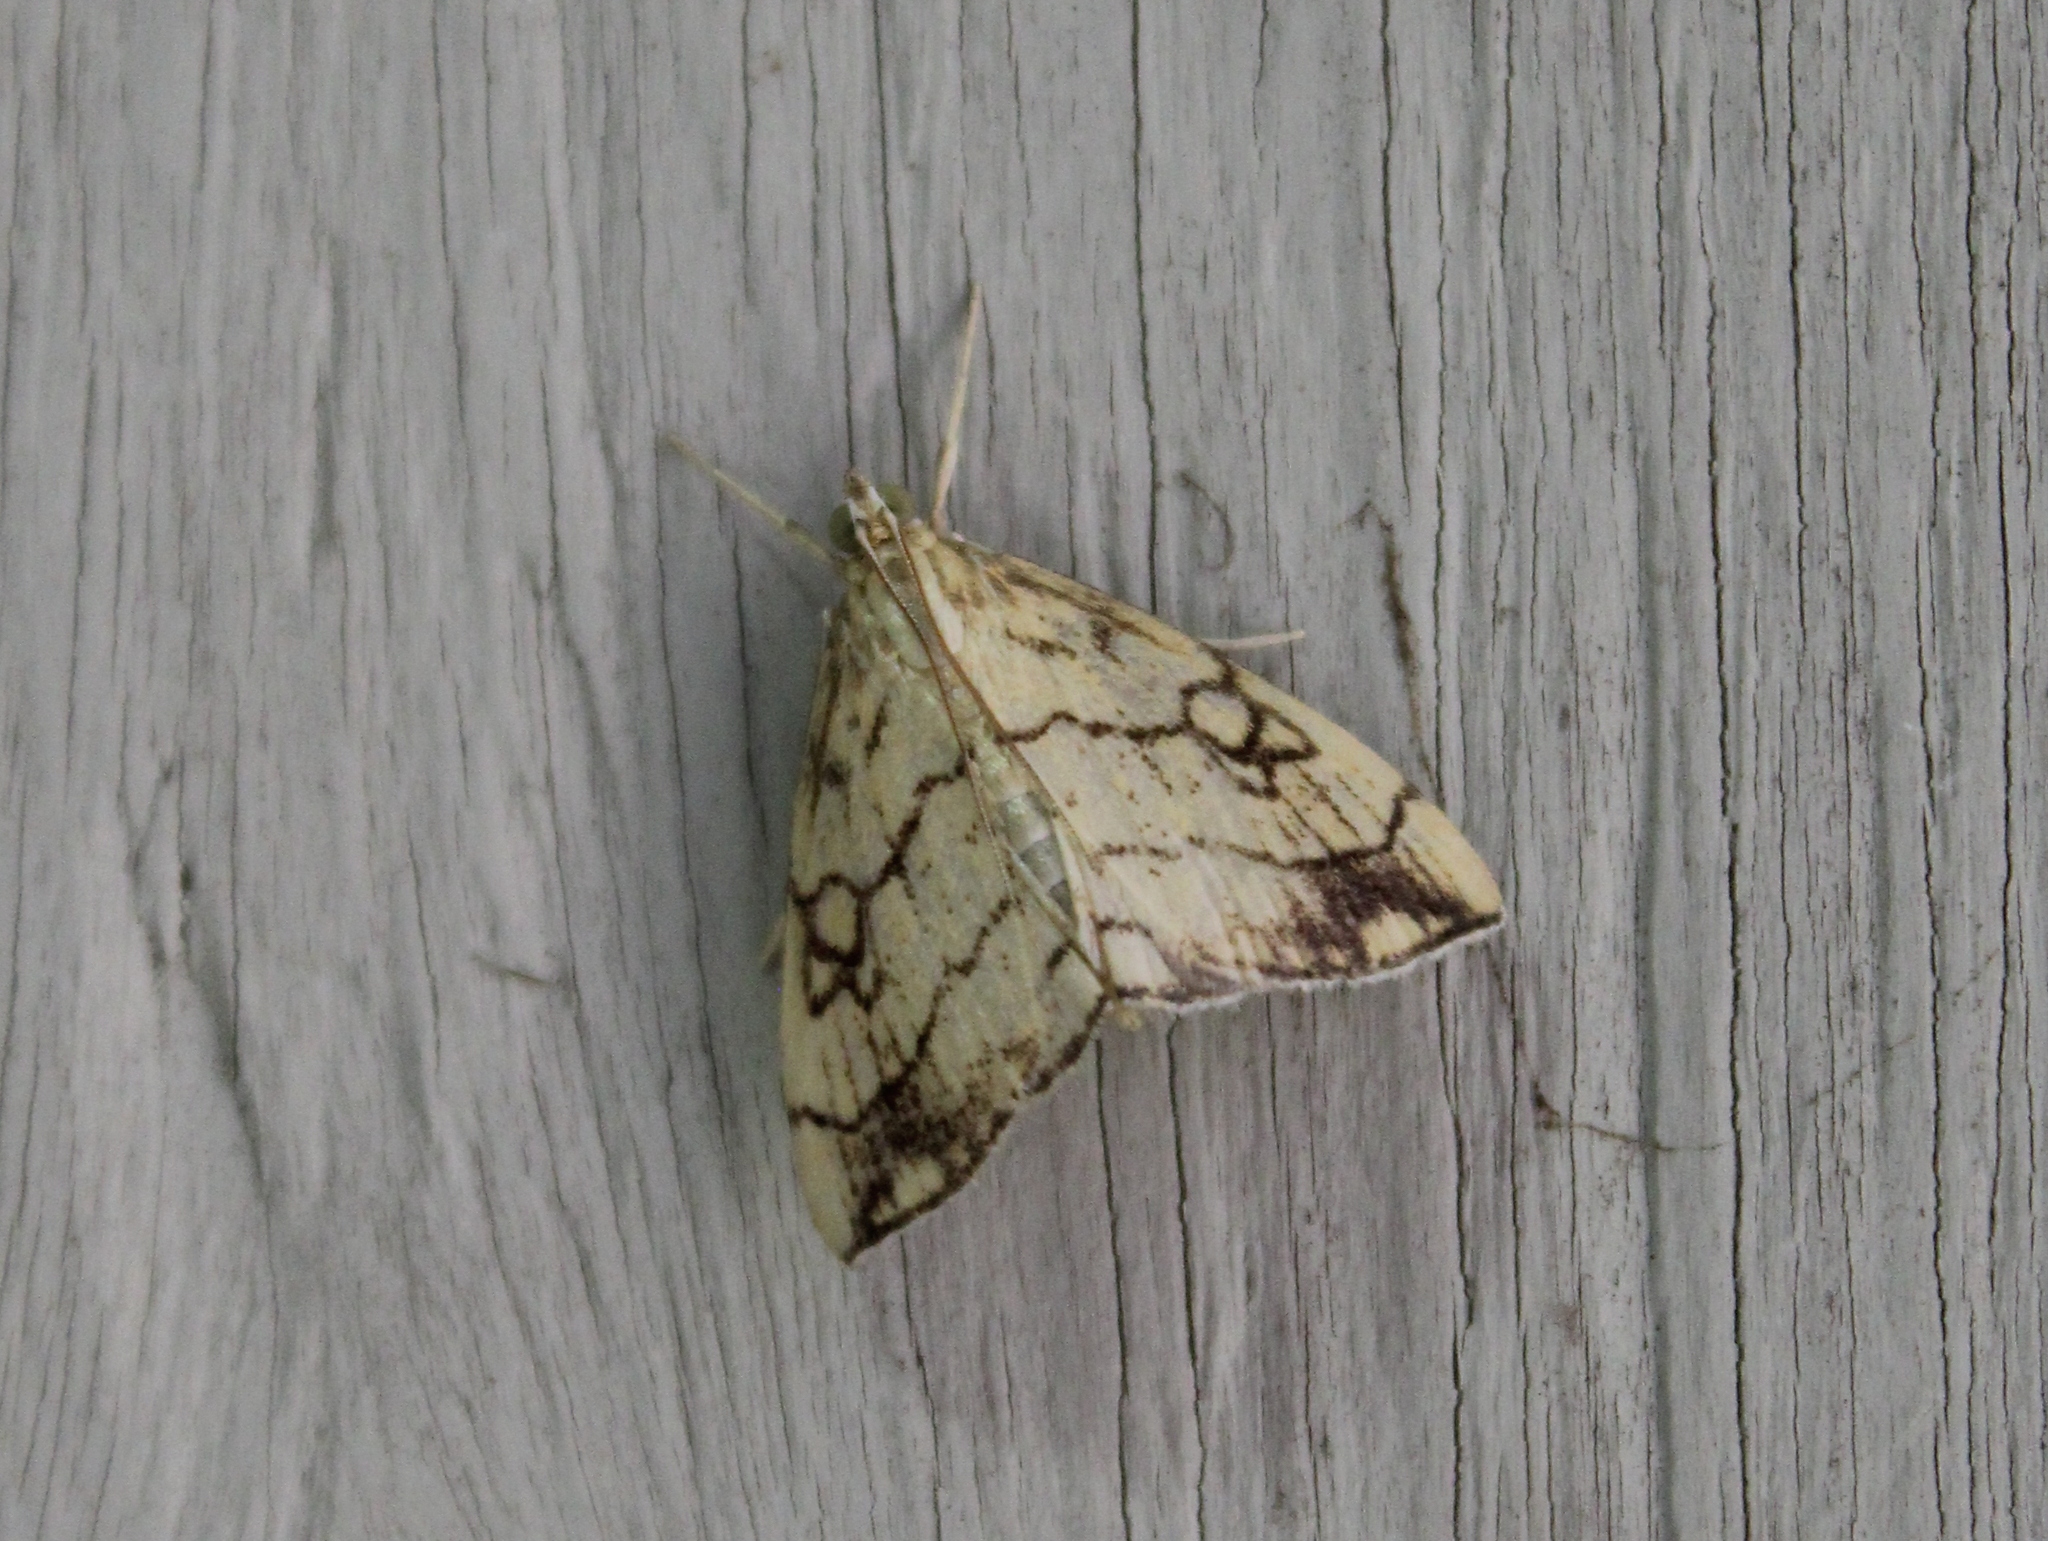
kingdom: Animalia
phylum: Arthropoda
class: Insecta
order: Lepidoptera
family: Crambidae
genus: Evergestis
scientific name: Evergestis pallidata
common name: Chequered pearl
